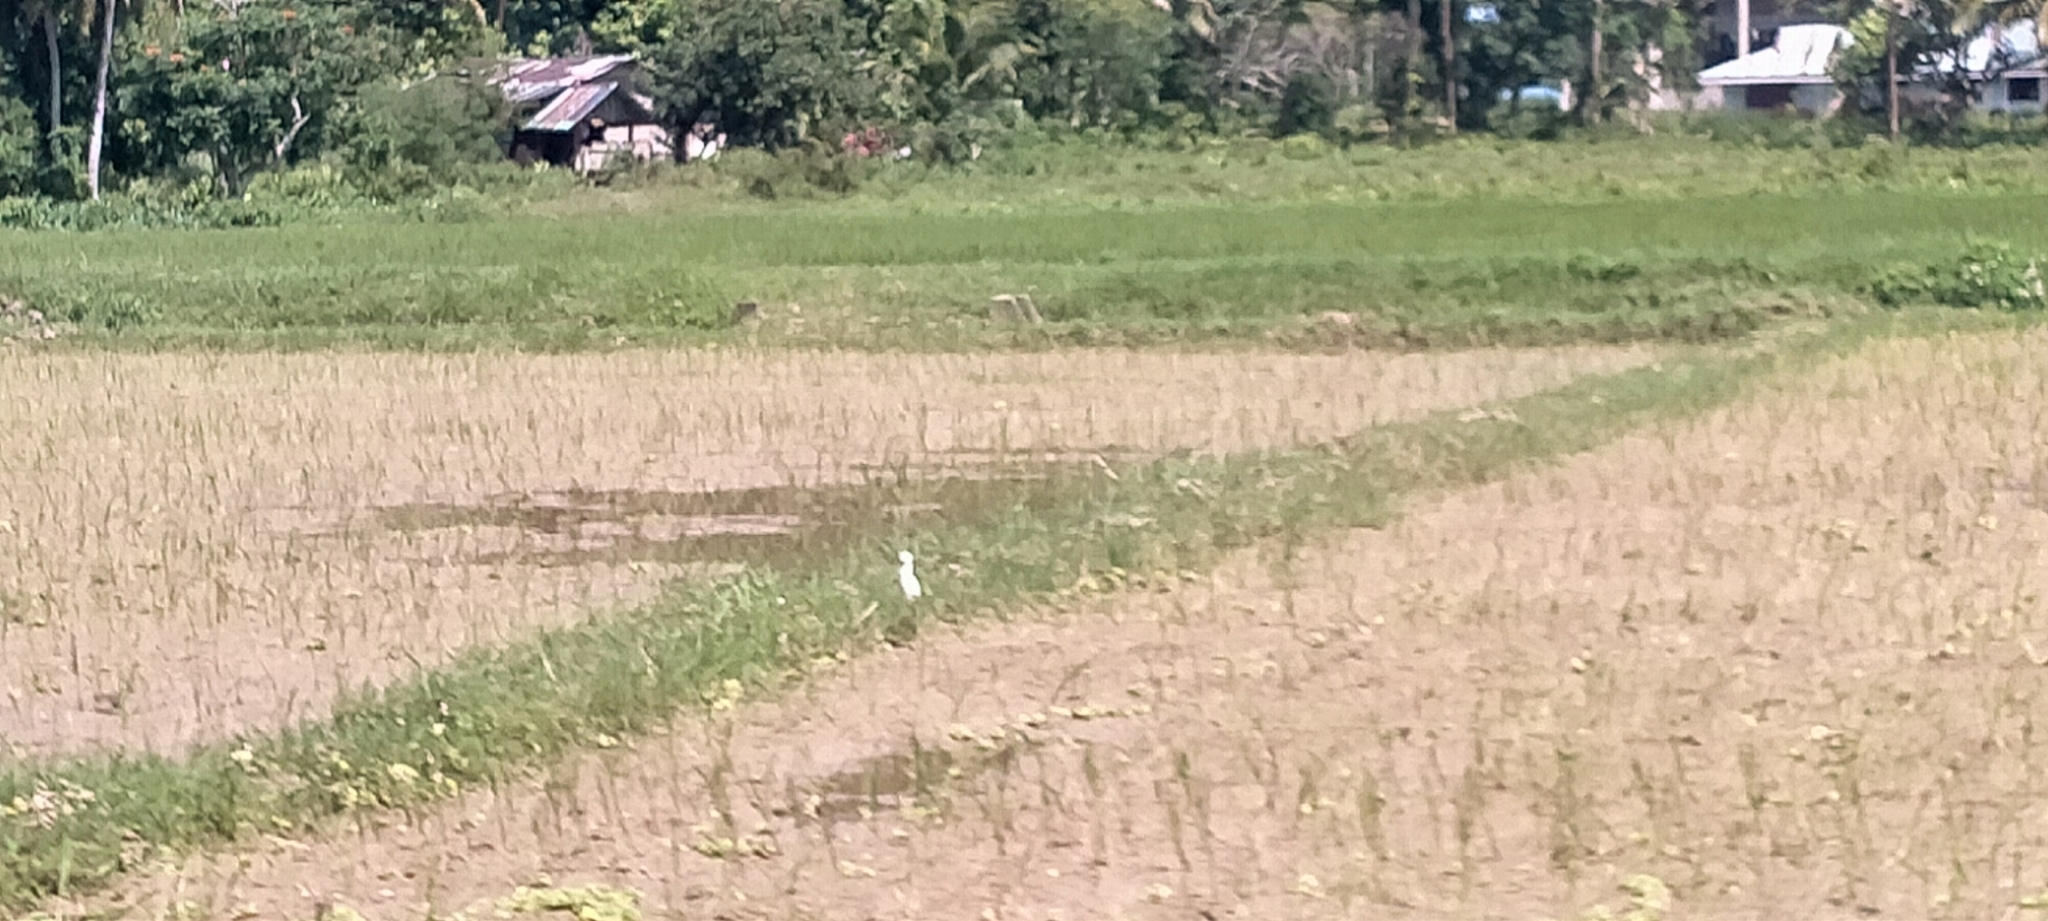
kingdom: Animalia
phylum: Chordata
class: Aves
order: Pelecaniformes
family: Ardeidae
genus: Bubulcus
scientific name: Bubulcus coromandus
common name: Eastern cattle egret
